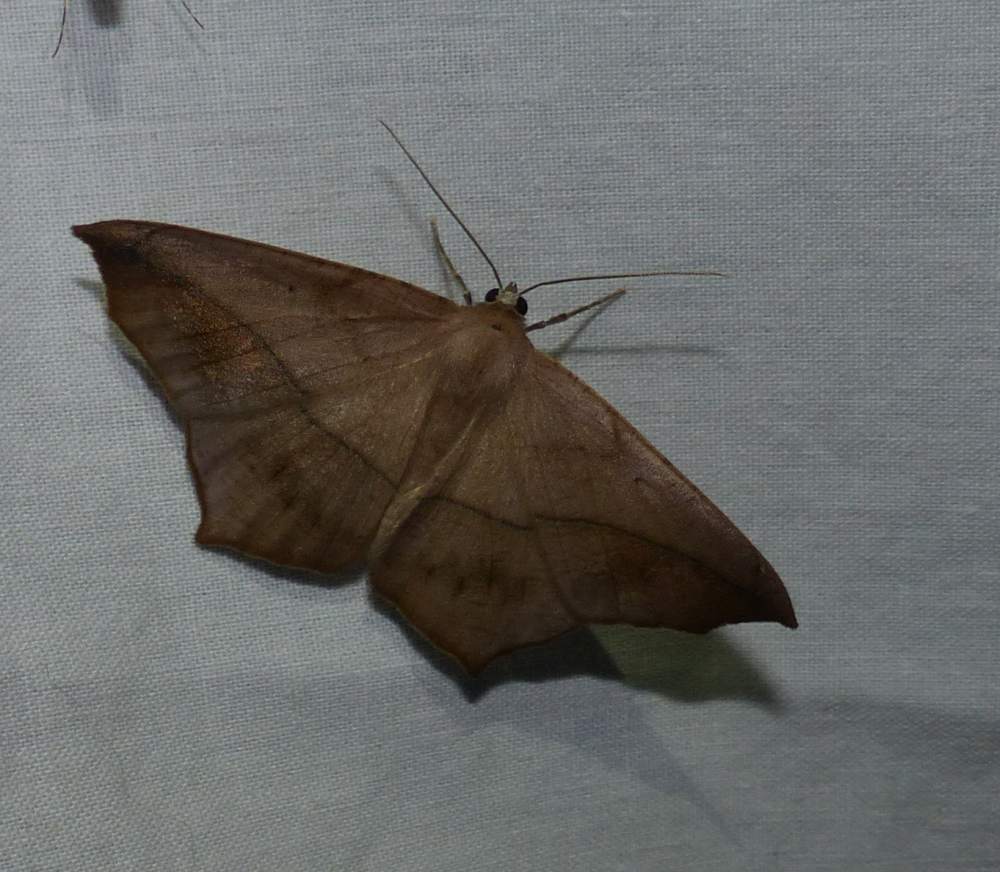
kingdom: Animalia
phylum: Arthropoda
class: Insecta
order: Lepidoptera
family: Geometridae
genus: Prochoerodes
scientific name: Prochoerodes lineola
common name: Large maple spanworm
